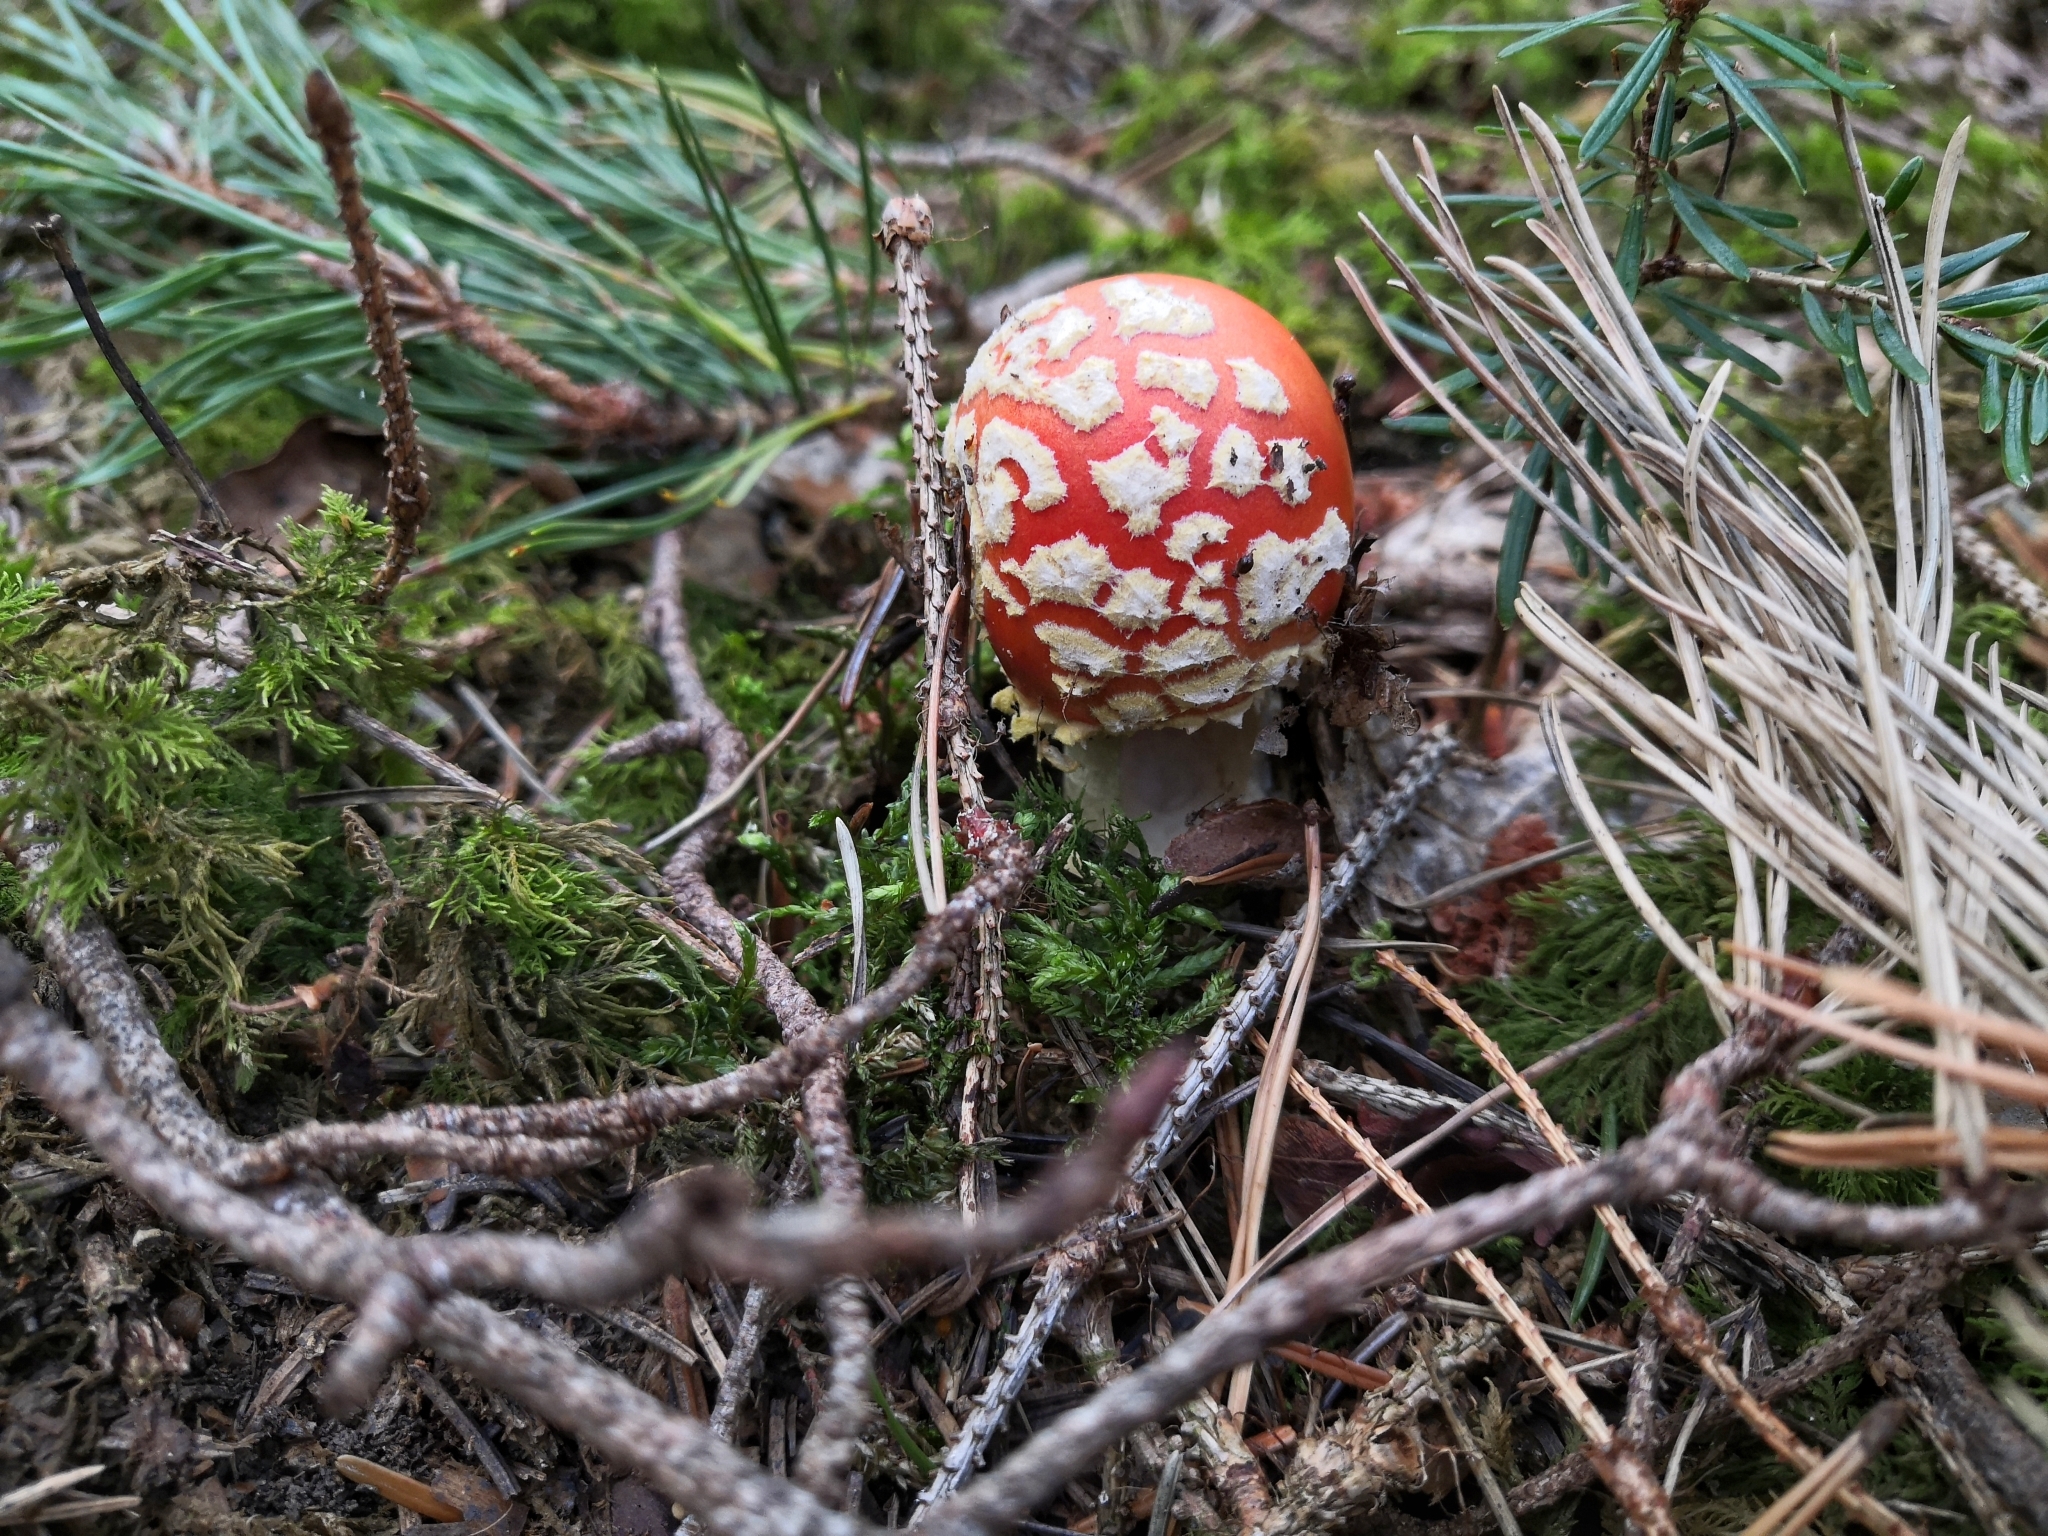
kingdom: Fungi
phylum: Basidiomycota
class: Agaricomycetes
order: Agaricales
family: Amanitaceae
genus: Amanita
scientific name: Amanita muscaria
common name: Fly agaric
